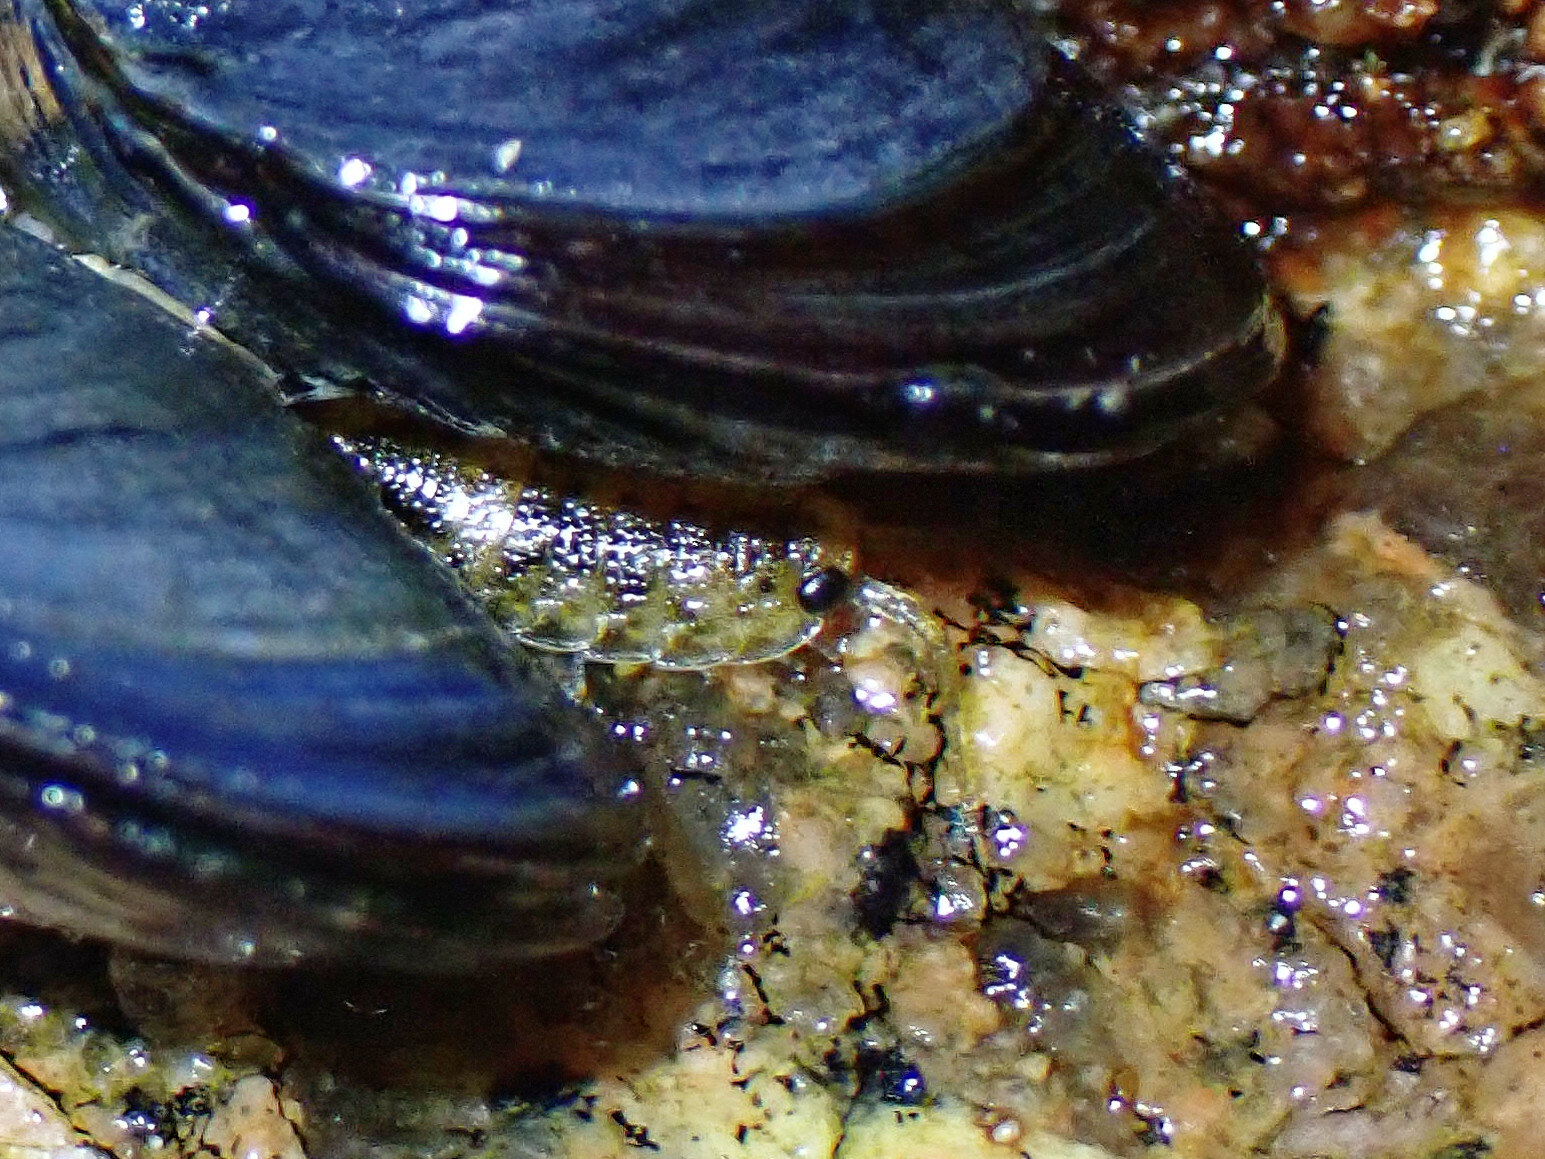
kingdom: Animalia
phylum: Arthropoda
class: Malacostraca
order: Isopoda
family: Ligiidae
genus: Ligia
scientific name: Ligia oceanica
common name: Sea slater
